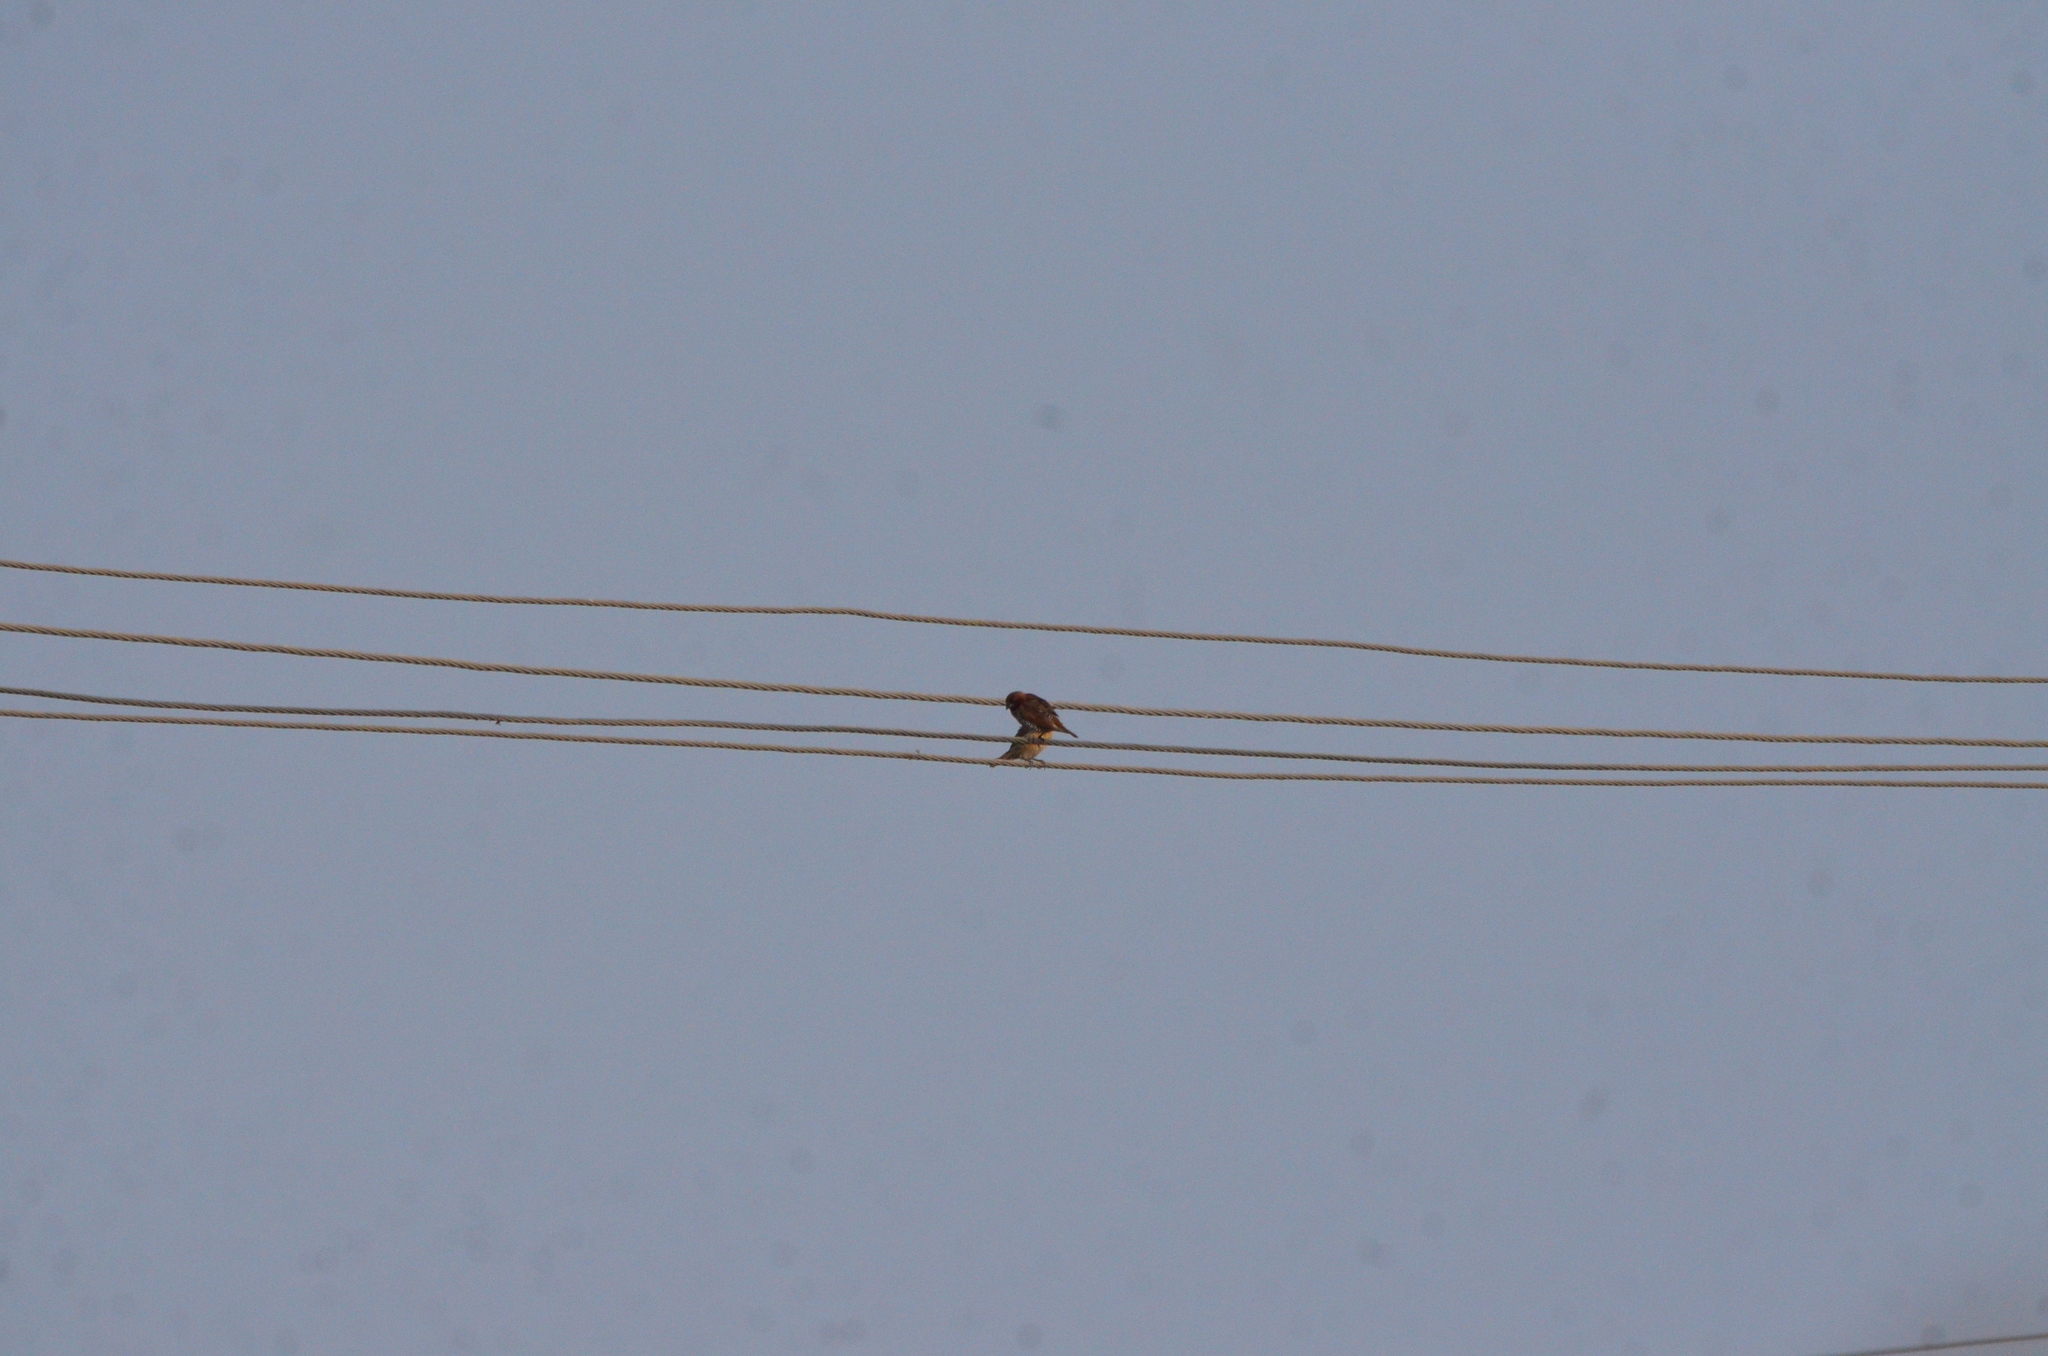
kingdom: Animalia
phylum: Chordata
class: Aves
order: Passeriformes
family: Estrildidae
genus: Lonchura
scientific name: Lonchura punctulata
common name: Scaly-breasted munia
